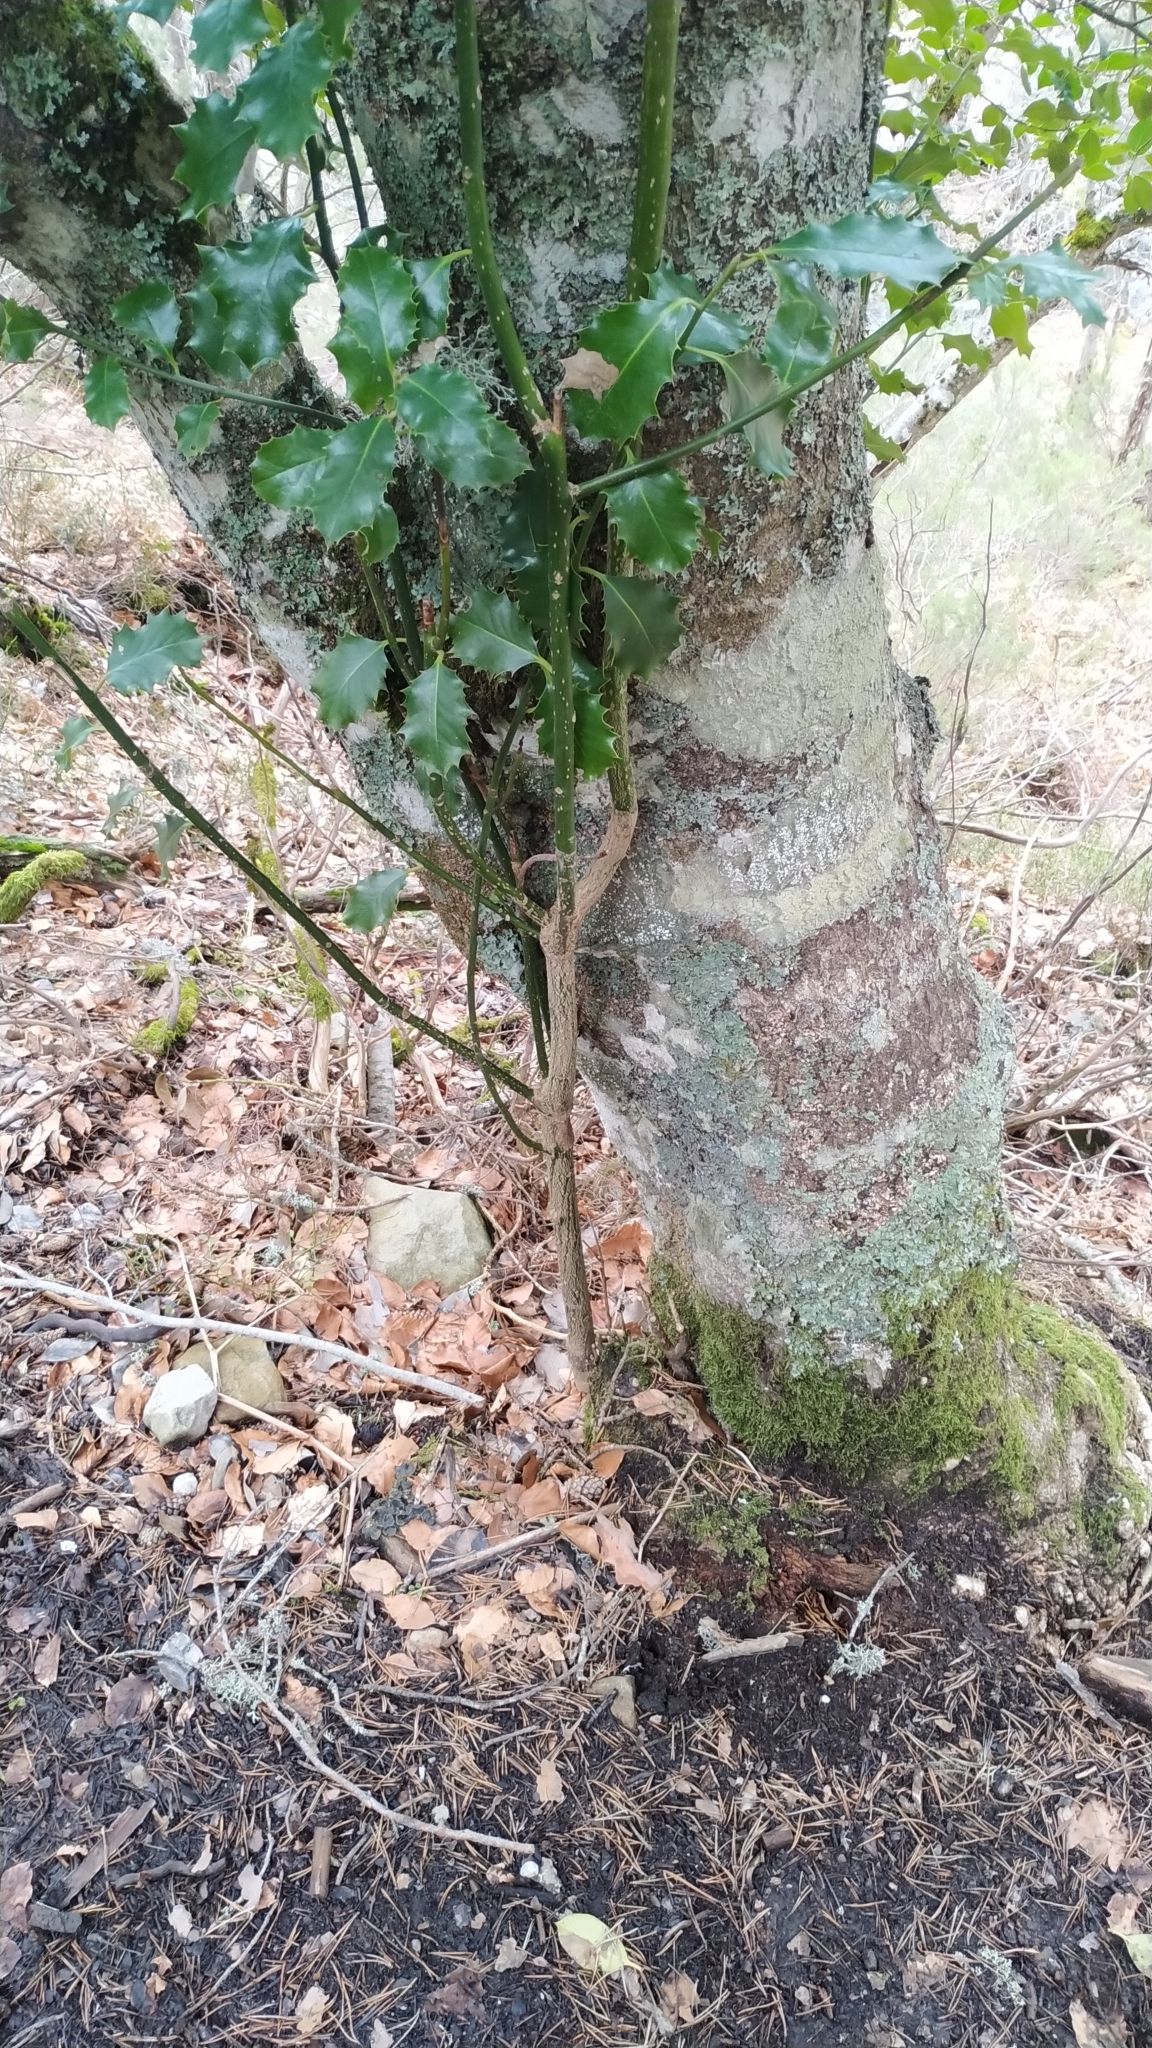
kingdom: Plantae
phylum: Tracheophyta
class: Magnoliopsida
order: Aquifoliales
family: Aquifoliaceae
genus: Ilex
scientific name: Ilex aquifolium
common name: English holly
